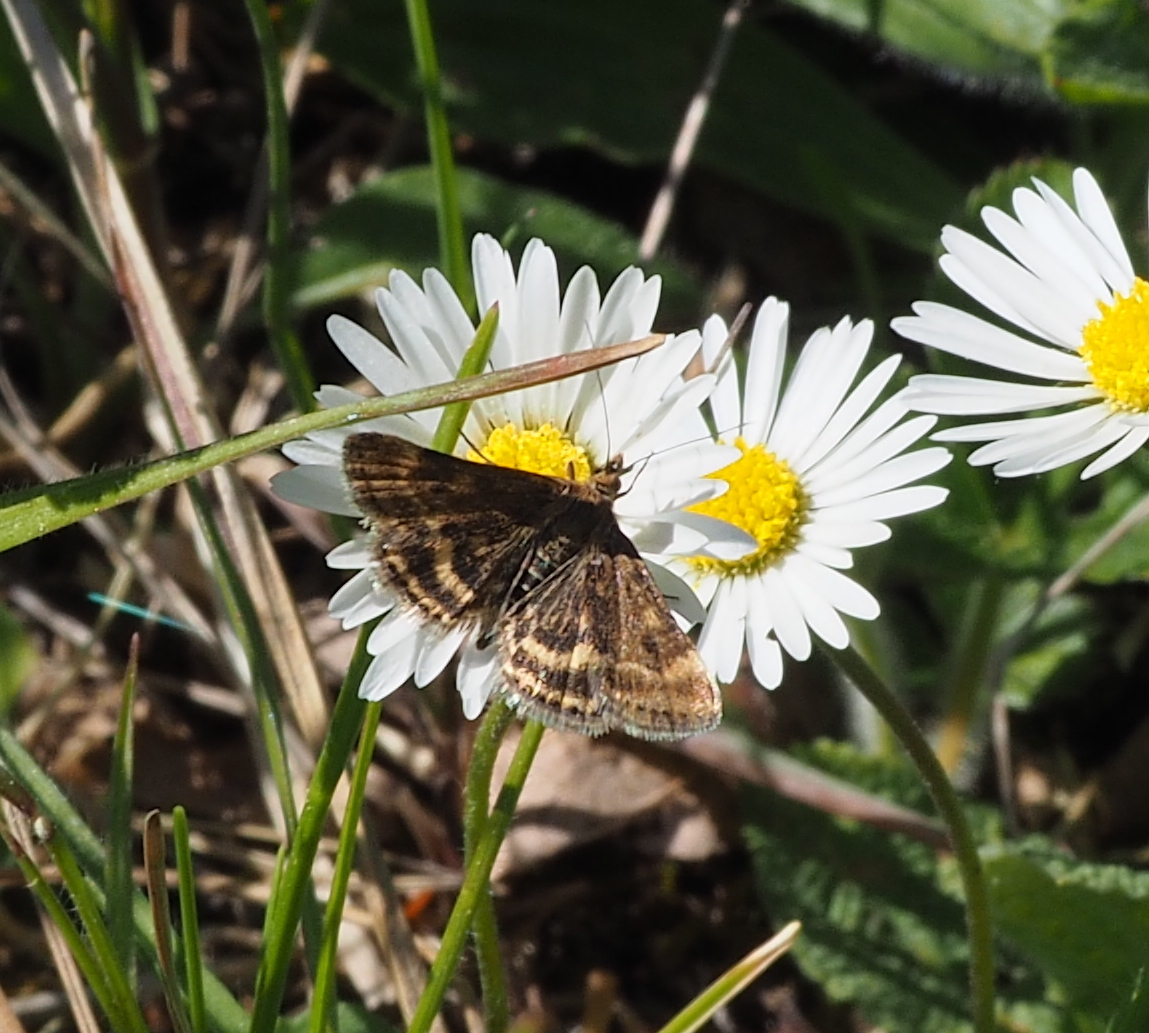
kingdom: Animalia
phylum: Arthropoda
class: Insecta
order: Lepidoptera
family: Crambidae
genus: Pyrausta
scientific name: Pyrausta despicata
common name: Straw-barred pearl
